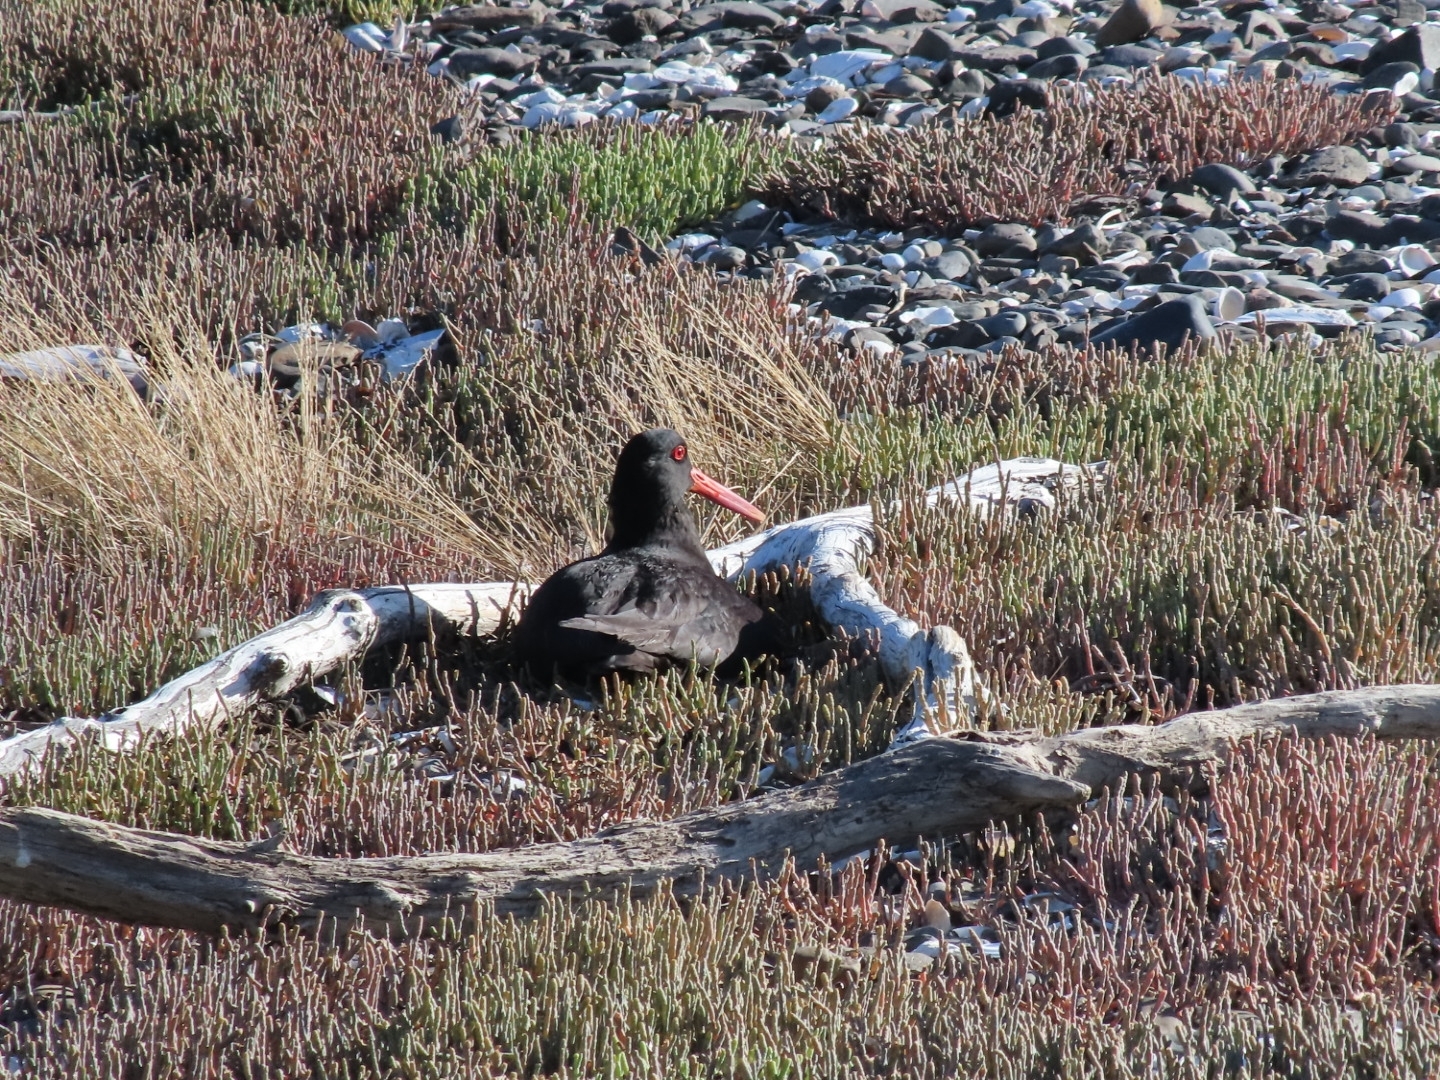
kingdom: Animalia
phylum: Chordata
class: Aves
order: Charadriiformes
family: Haematopodidae
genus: Haematopus
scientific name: Haematopus unicolor
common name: Variable oystercatcher
